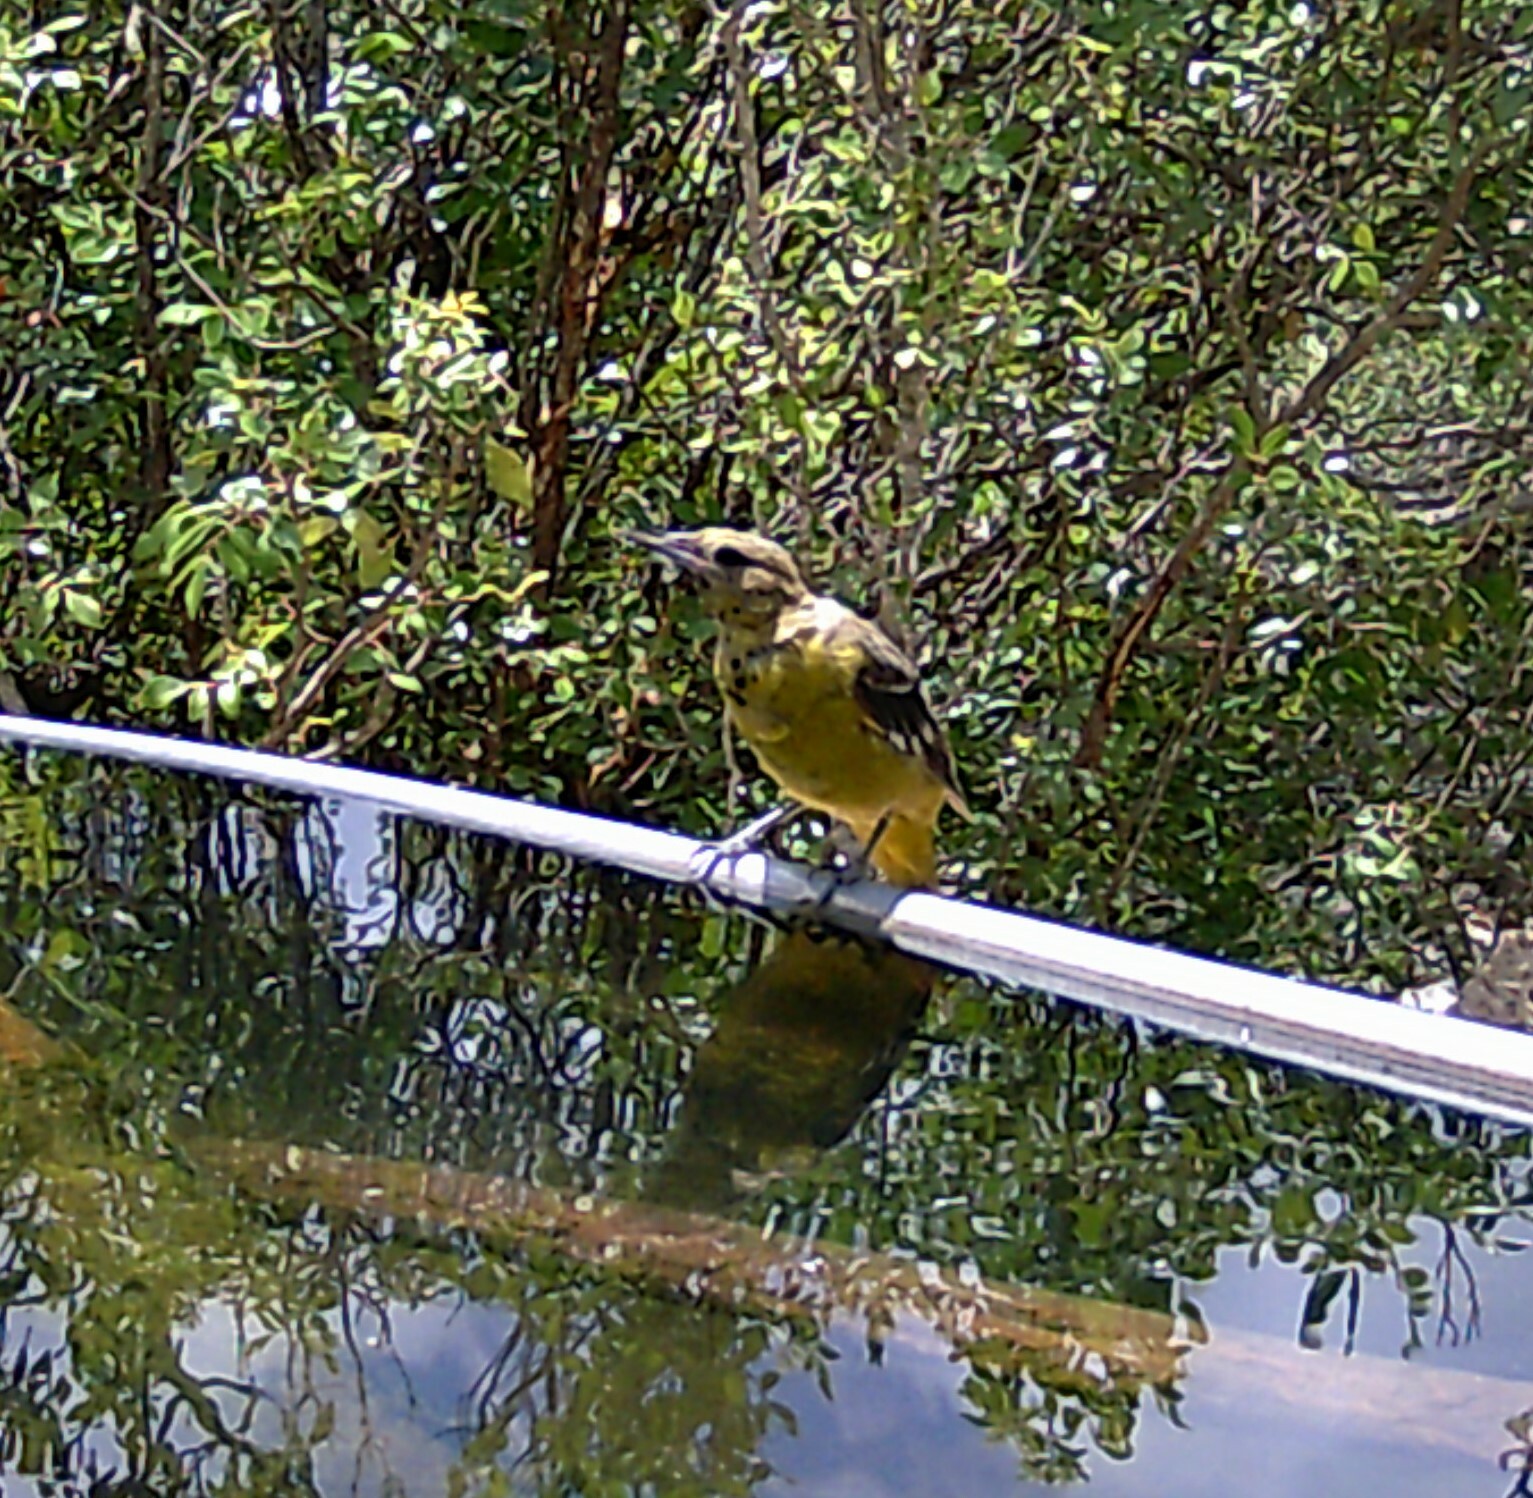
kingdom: Animalia
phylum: Chordata
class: Aves
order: Passeriformes
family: Icteridae
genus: Icterus
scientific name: Icterus parisorum
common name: Scott's oriole
